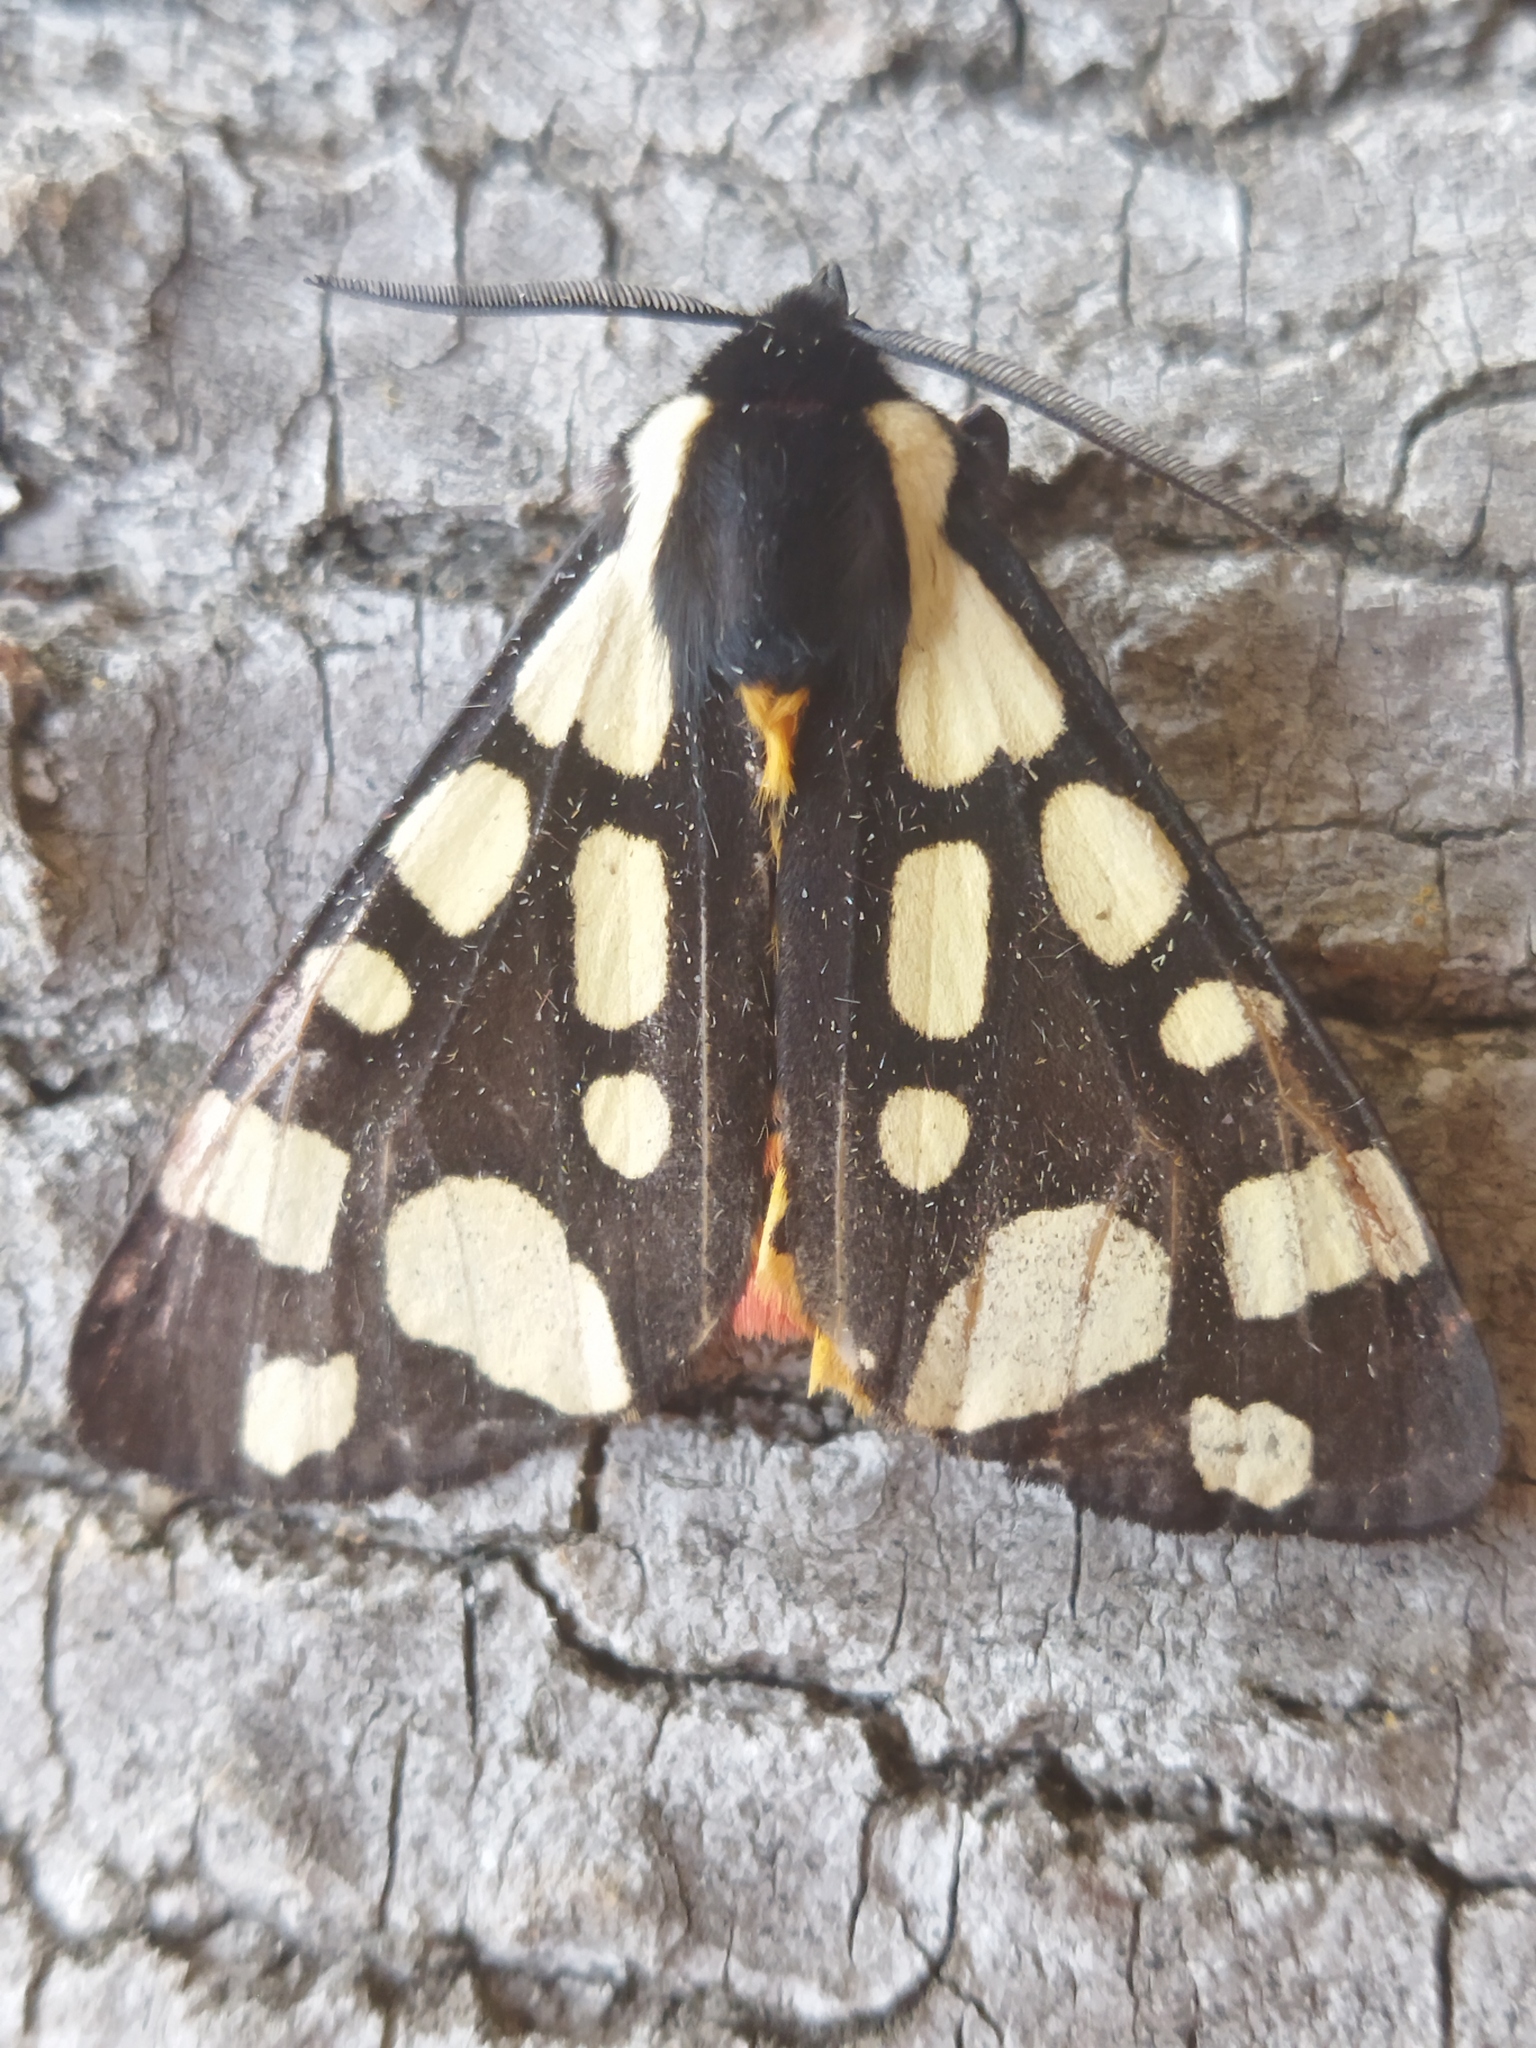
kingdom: Animalia
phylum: Arthropoda
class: Insecta
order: Lepidoptera
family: Erebidae
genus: Epicallia
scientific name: Epicallia villica
